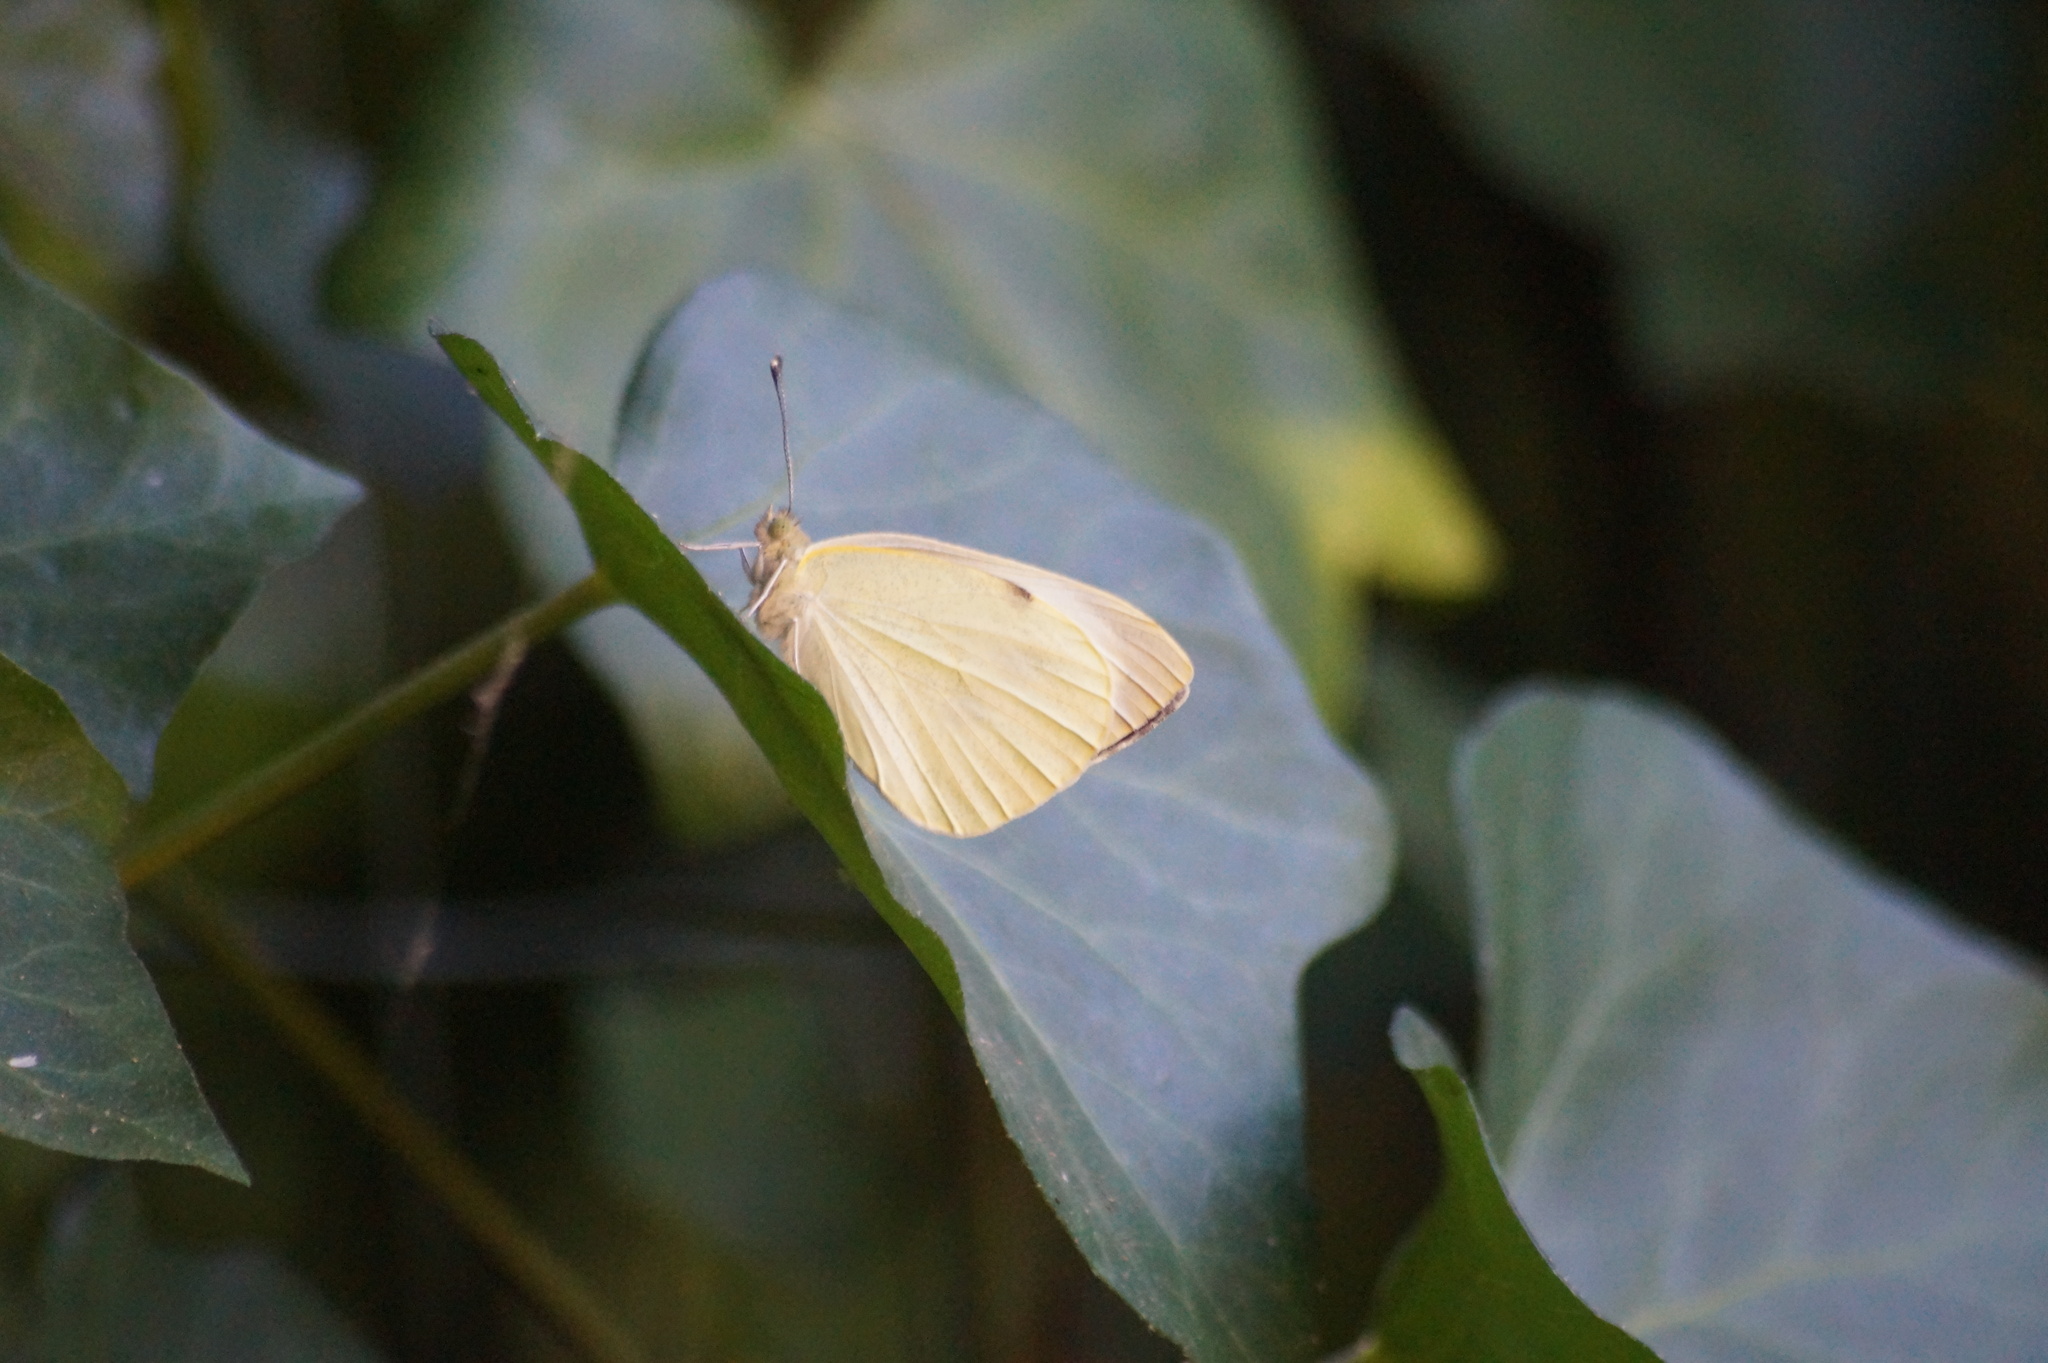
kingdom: Animalia
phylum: Arthropoda
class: Insecta
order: Lepidoptera
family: Pieridae
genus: Pieris
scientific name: Pieris brassicae
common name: Large white
